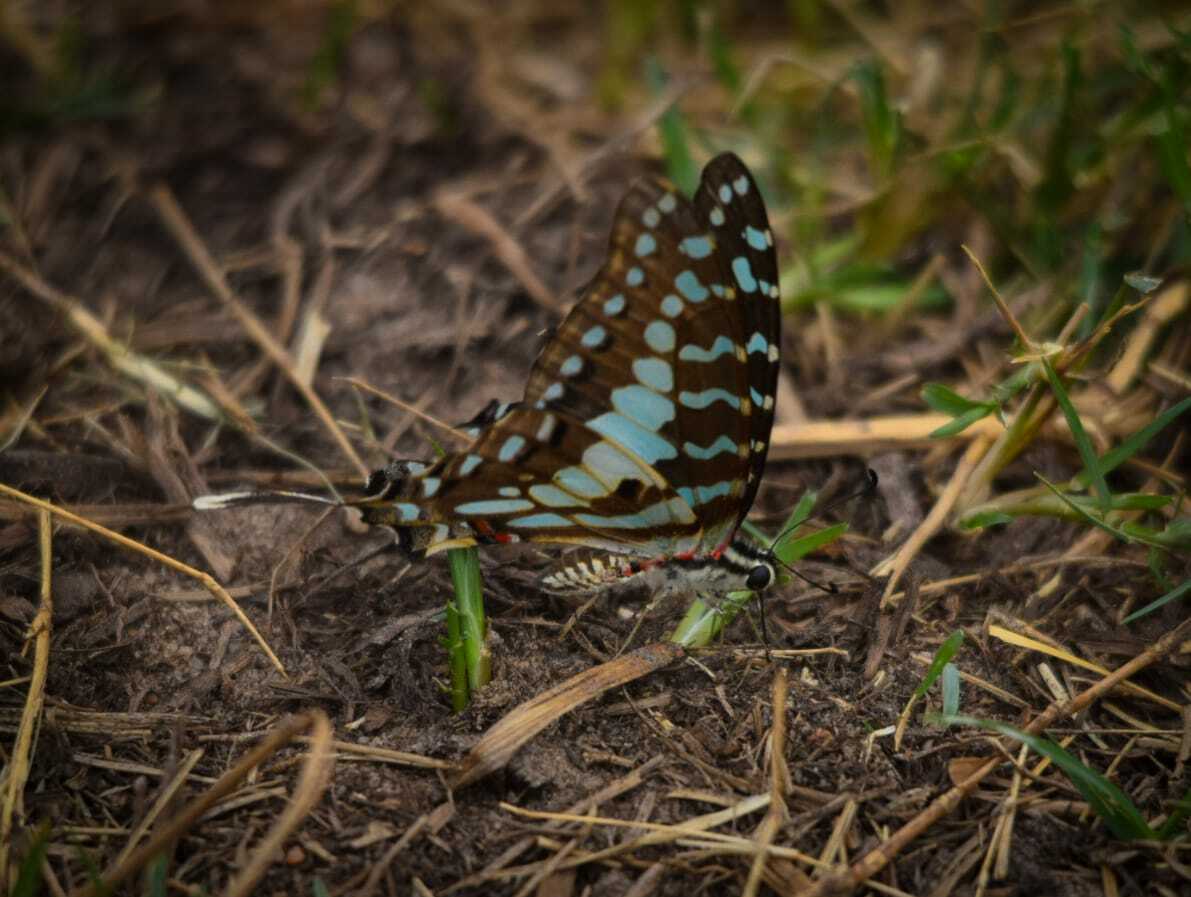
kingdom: Animalia
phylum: Arthropoda
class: Insecta
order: Lepidoptera
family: Papilionidae
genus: Graphium
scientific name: Graphium antheus
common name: Large striped swordtail
